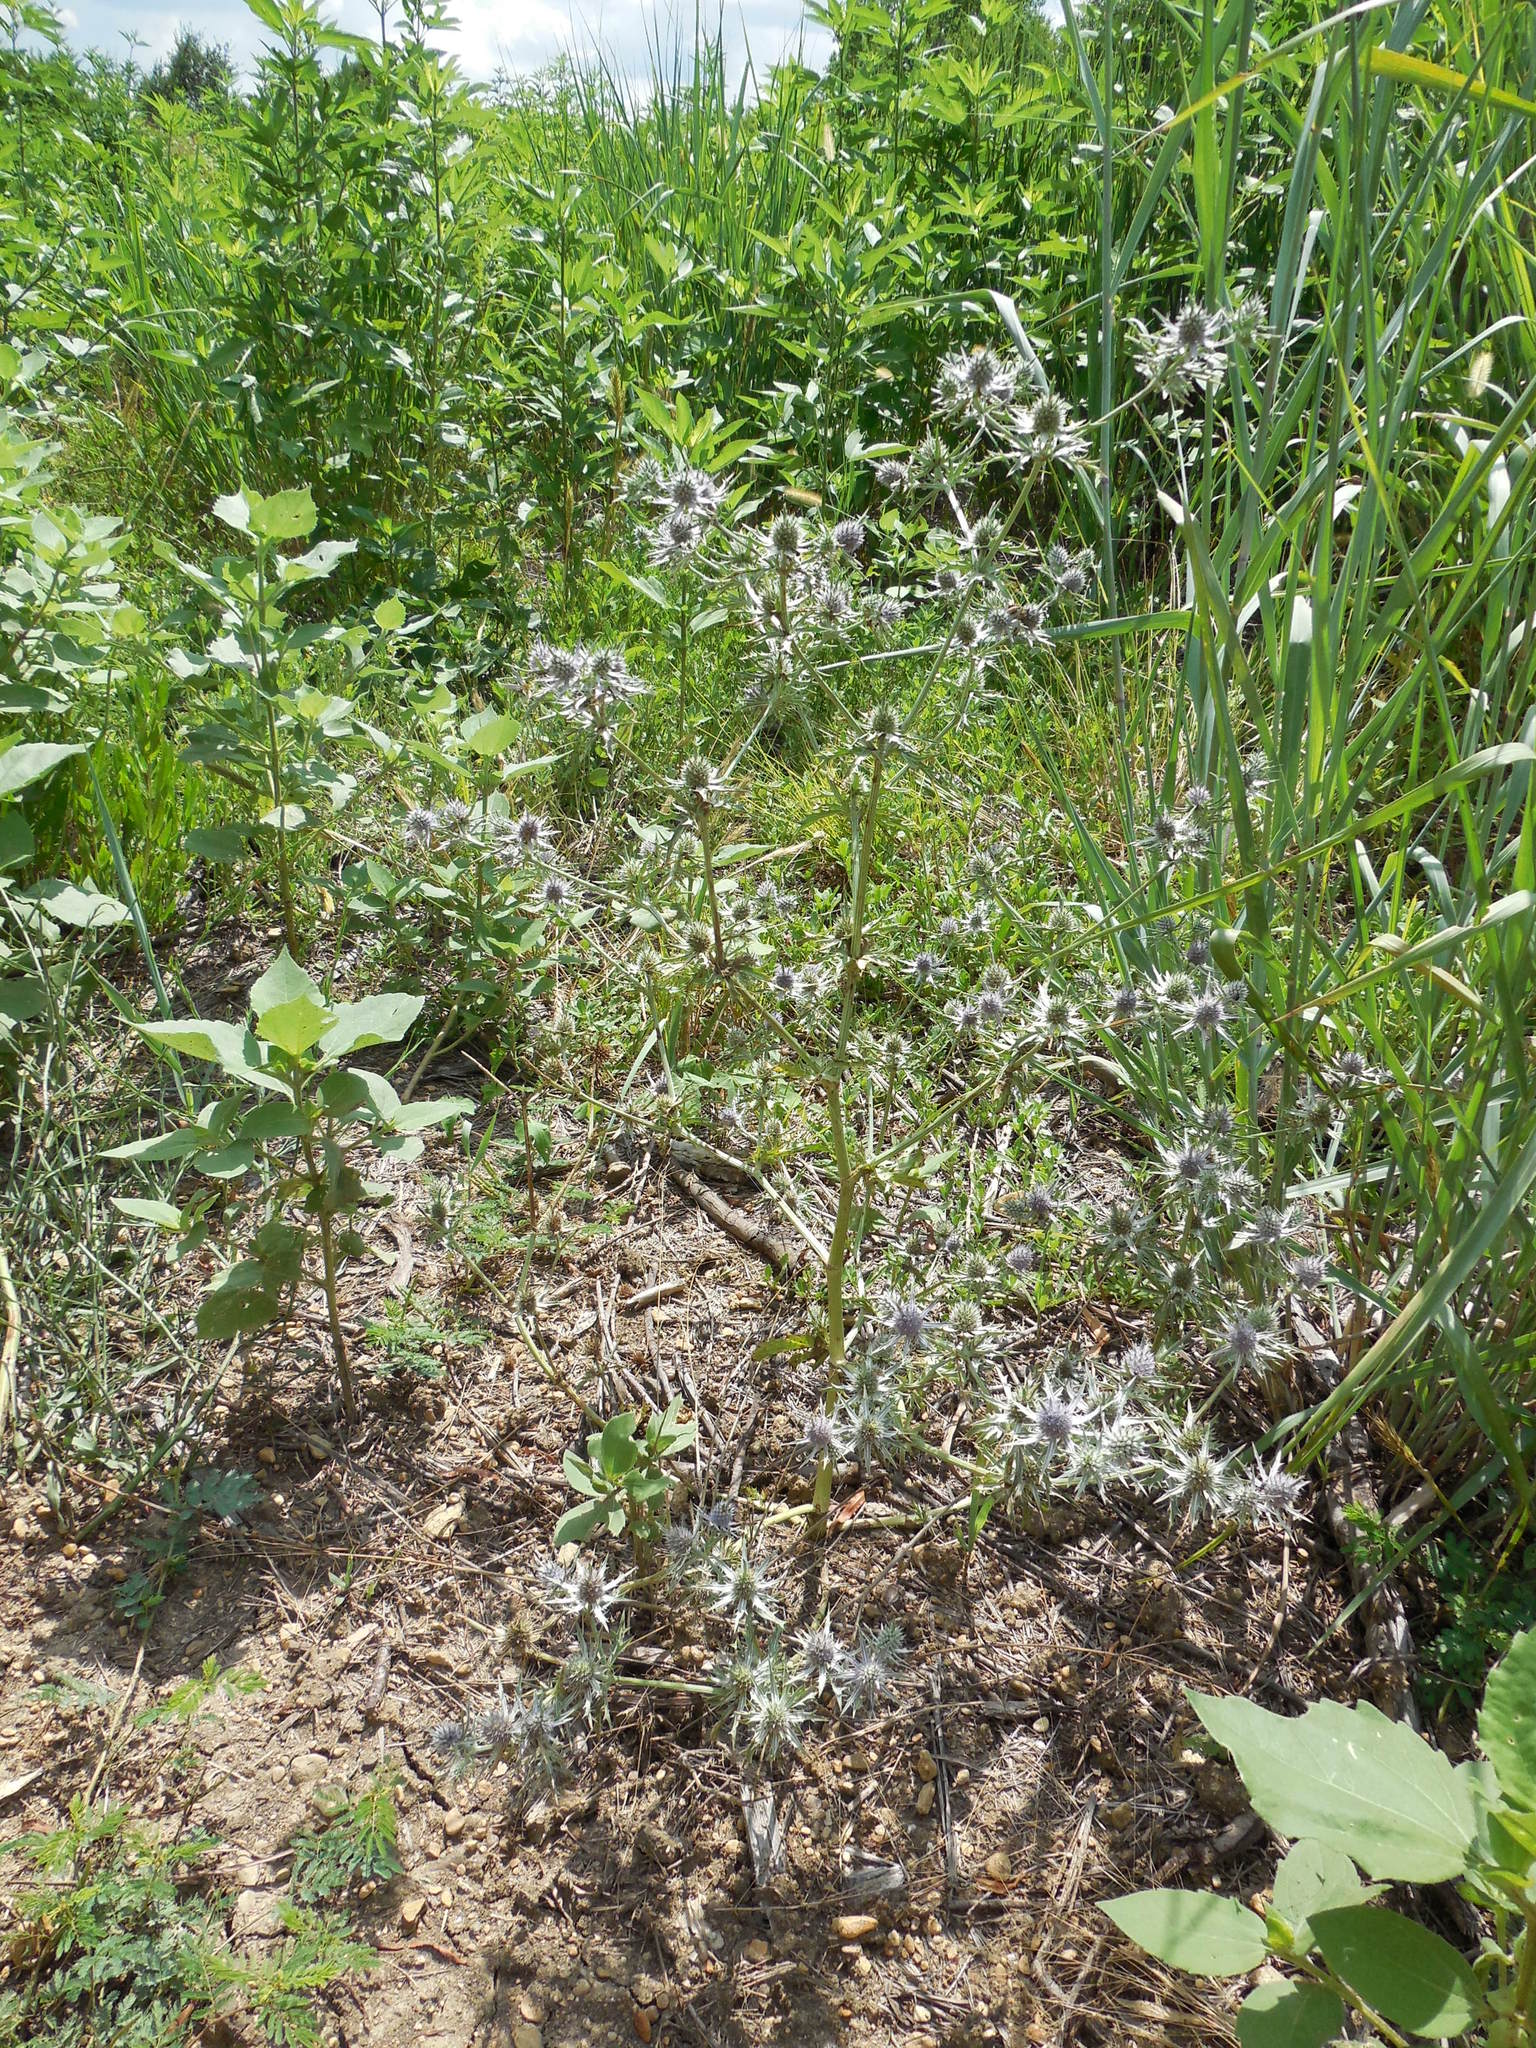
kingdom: Plantae
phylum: Tracheophyta
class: Magnoliopsida
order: Apiales
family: Apiaceae
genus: Eryngium
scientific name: Eryngium hookeri
